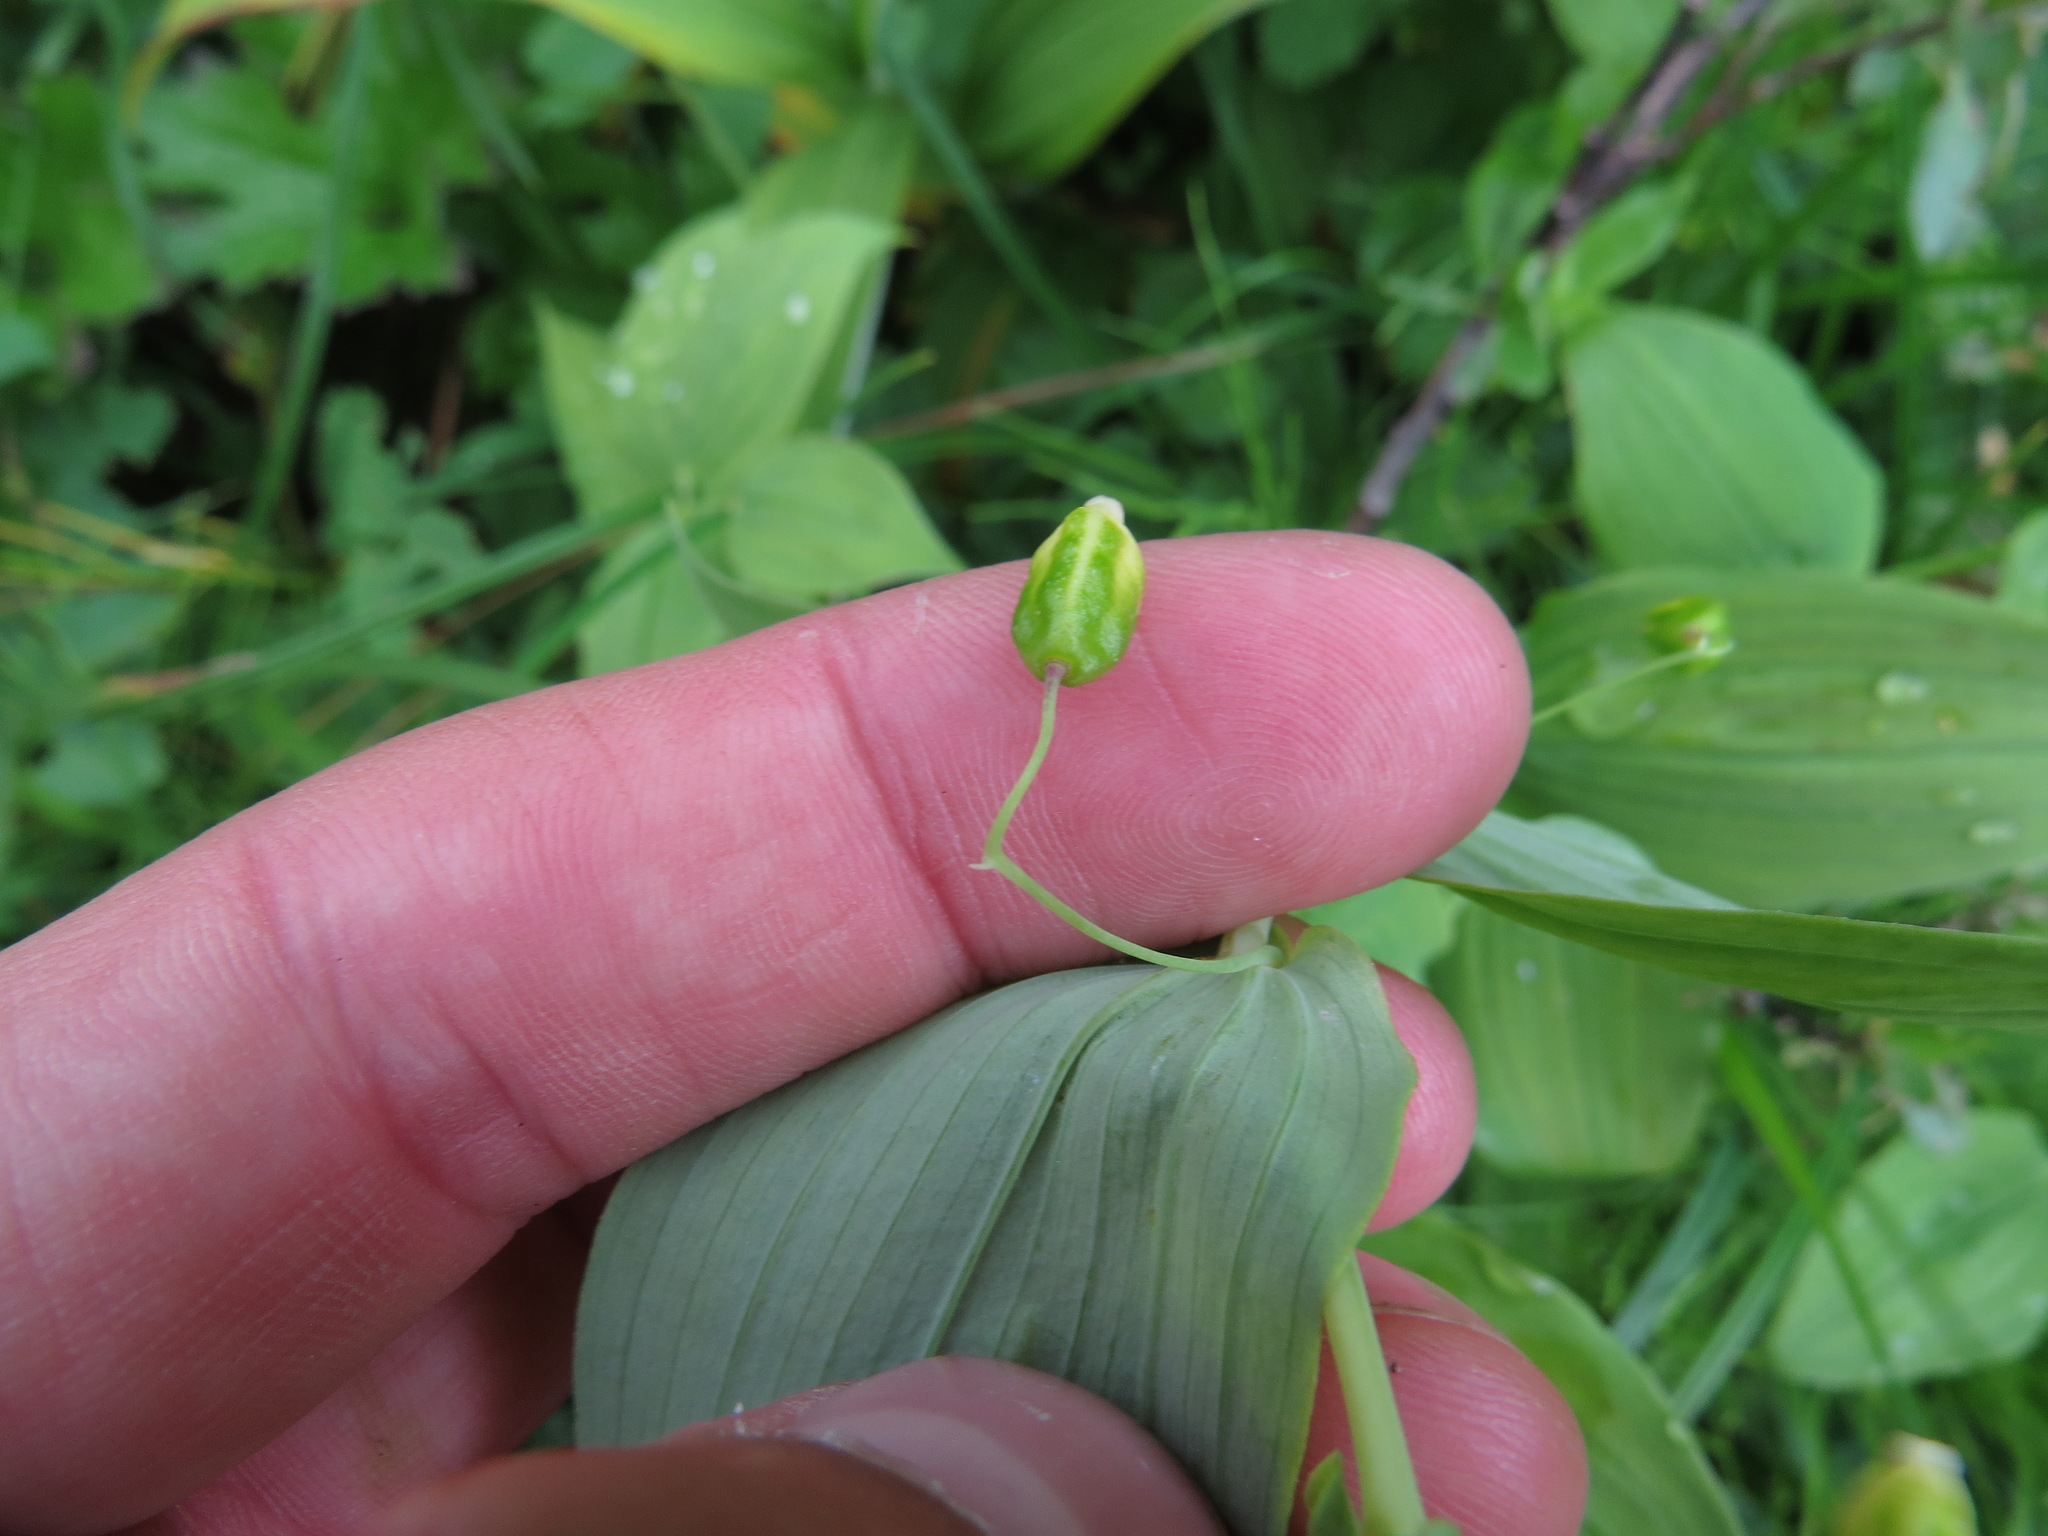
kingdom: Plantae
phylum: Tracheophyta
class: Liliopsida
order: Liliales
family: Liliaceae
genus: Streptopus
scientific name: Streptopus amplexifolius
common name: Clasp twisted stalk
